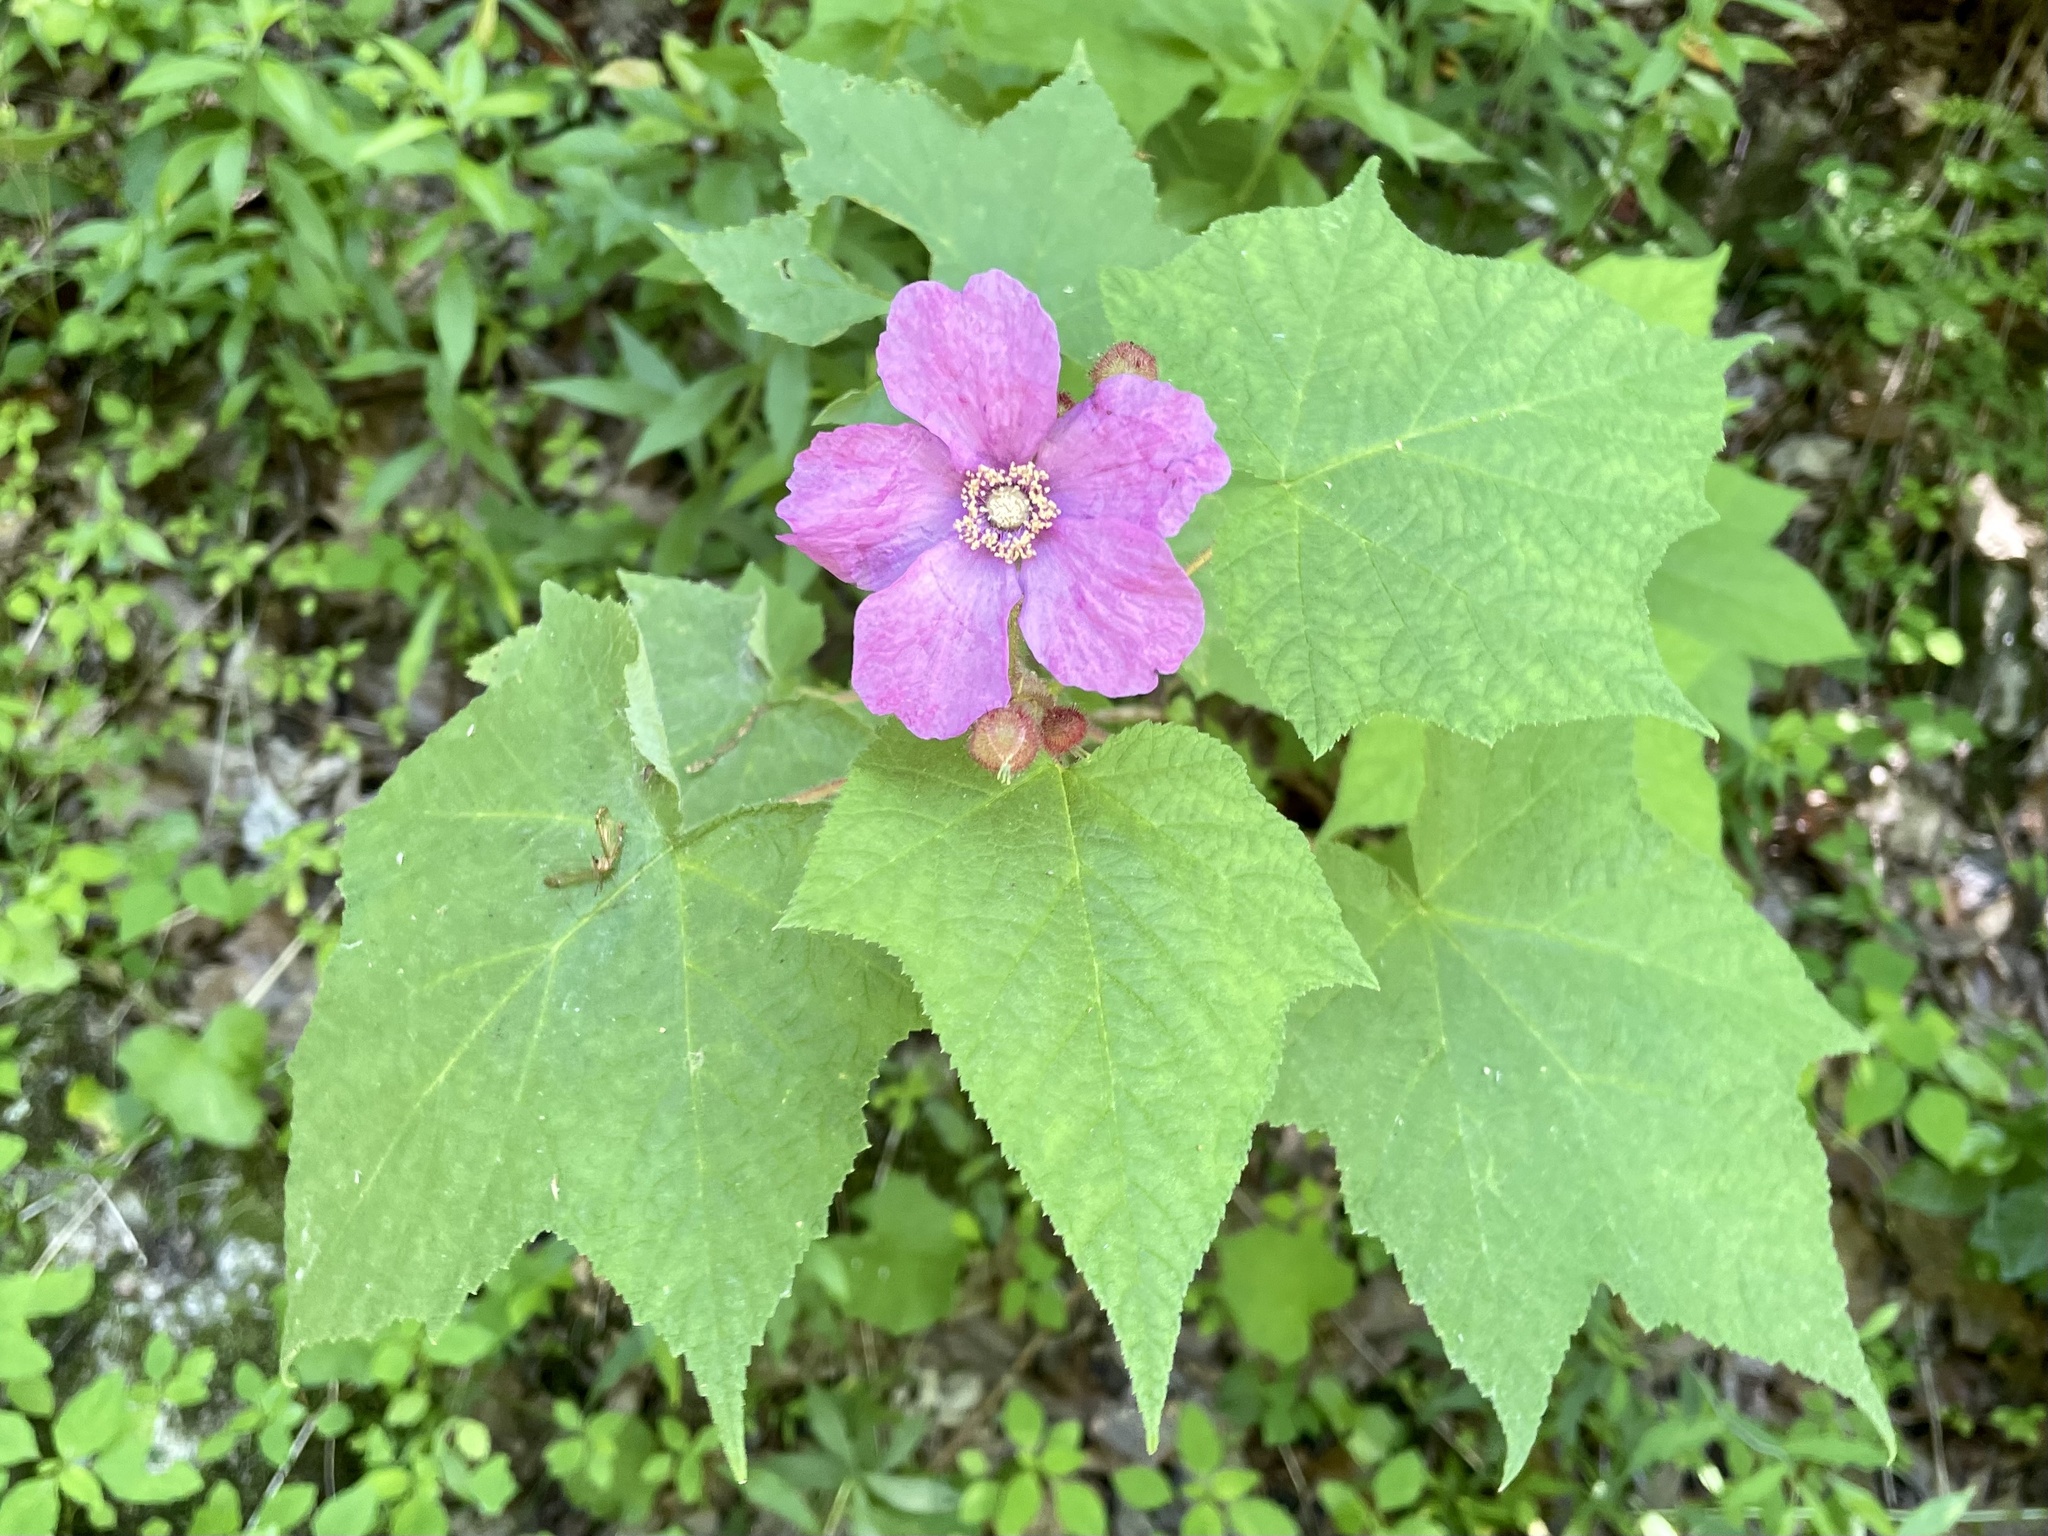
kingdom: Plantae
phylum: Tracheophyta
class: Magnoliopsida
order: Rosales
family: Rosaceae
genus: Rubus
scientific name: Rubus odoratus
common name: Purple-flowered raspberry
